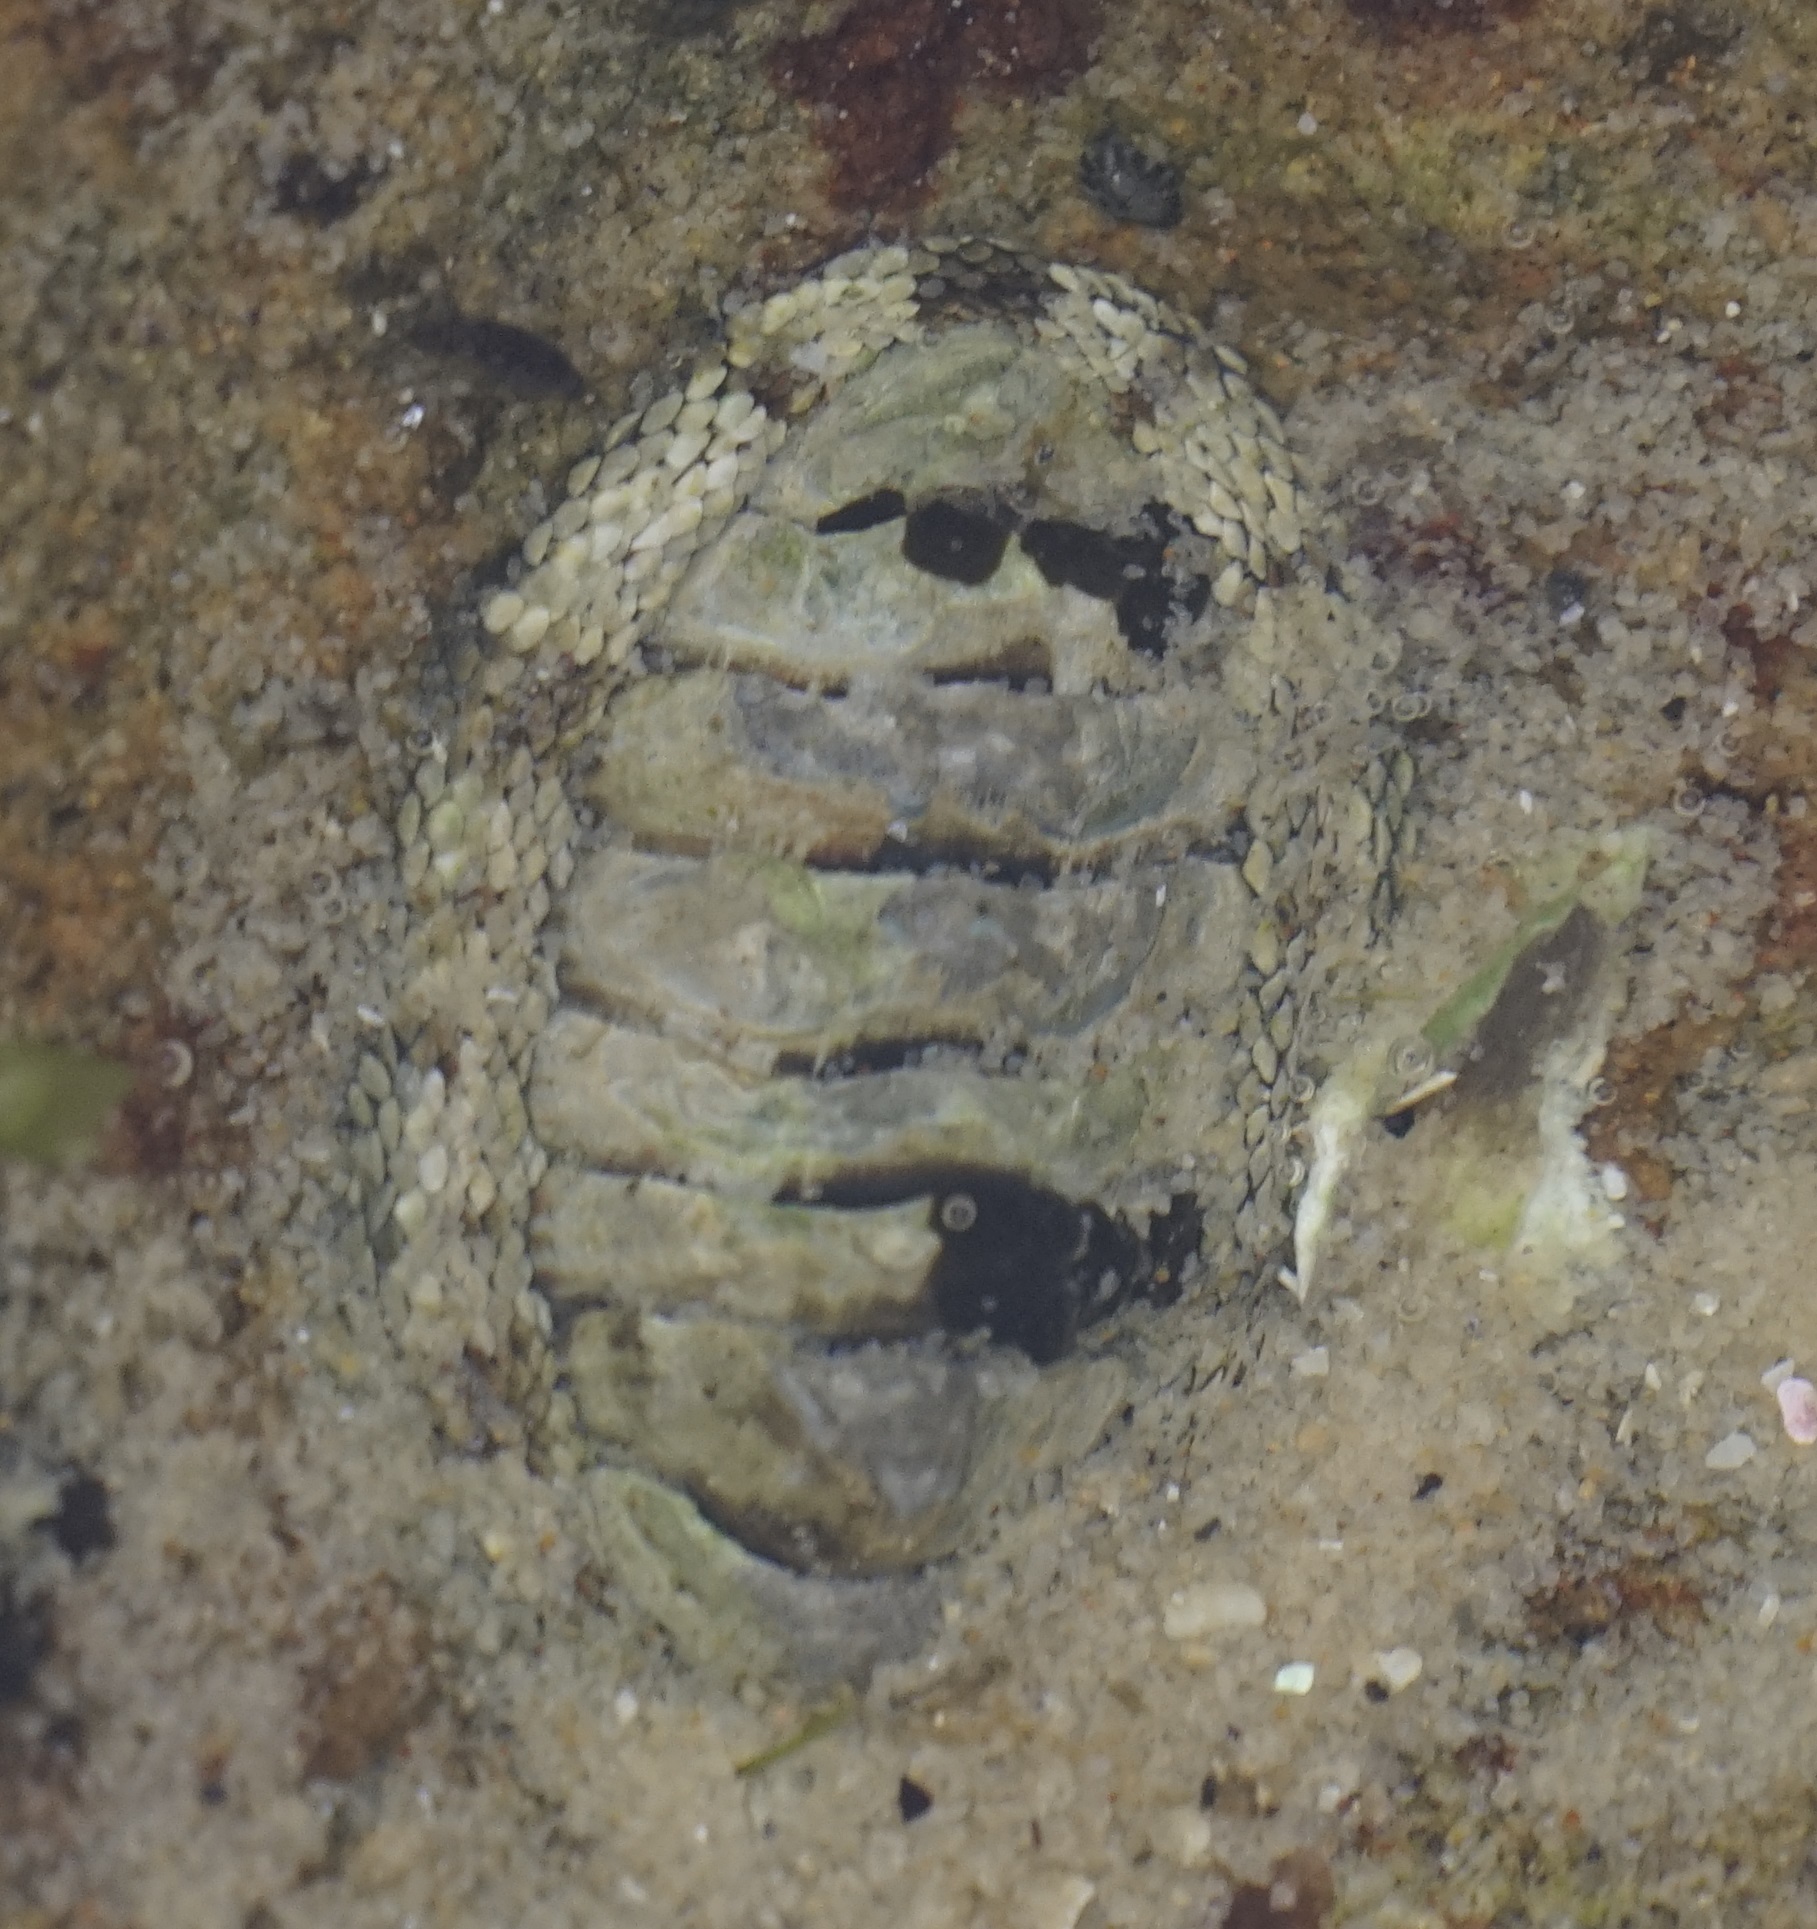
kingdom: Animalia
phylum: Mollusca
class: Polyplacophora
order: Chitonida
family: Chitonidae
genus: Sypharochiton
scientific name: Sypharochiton pelliserpentis
